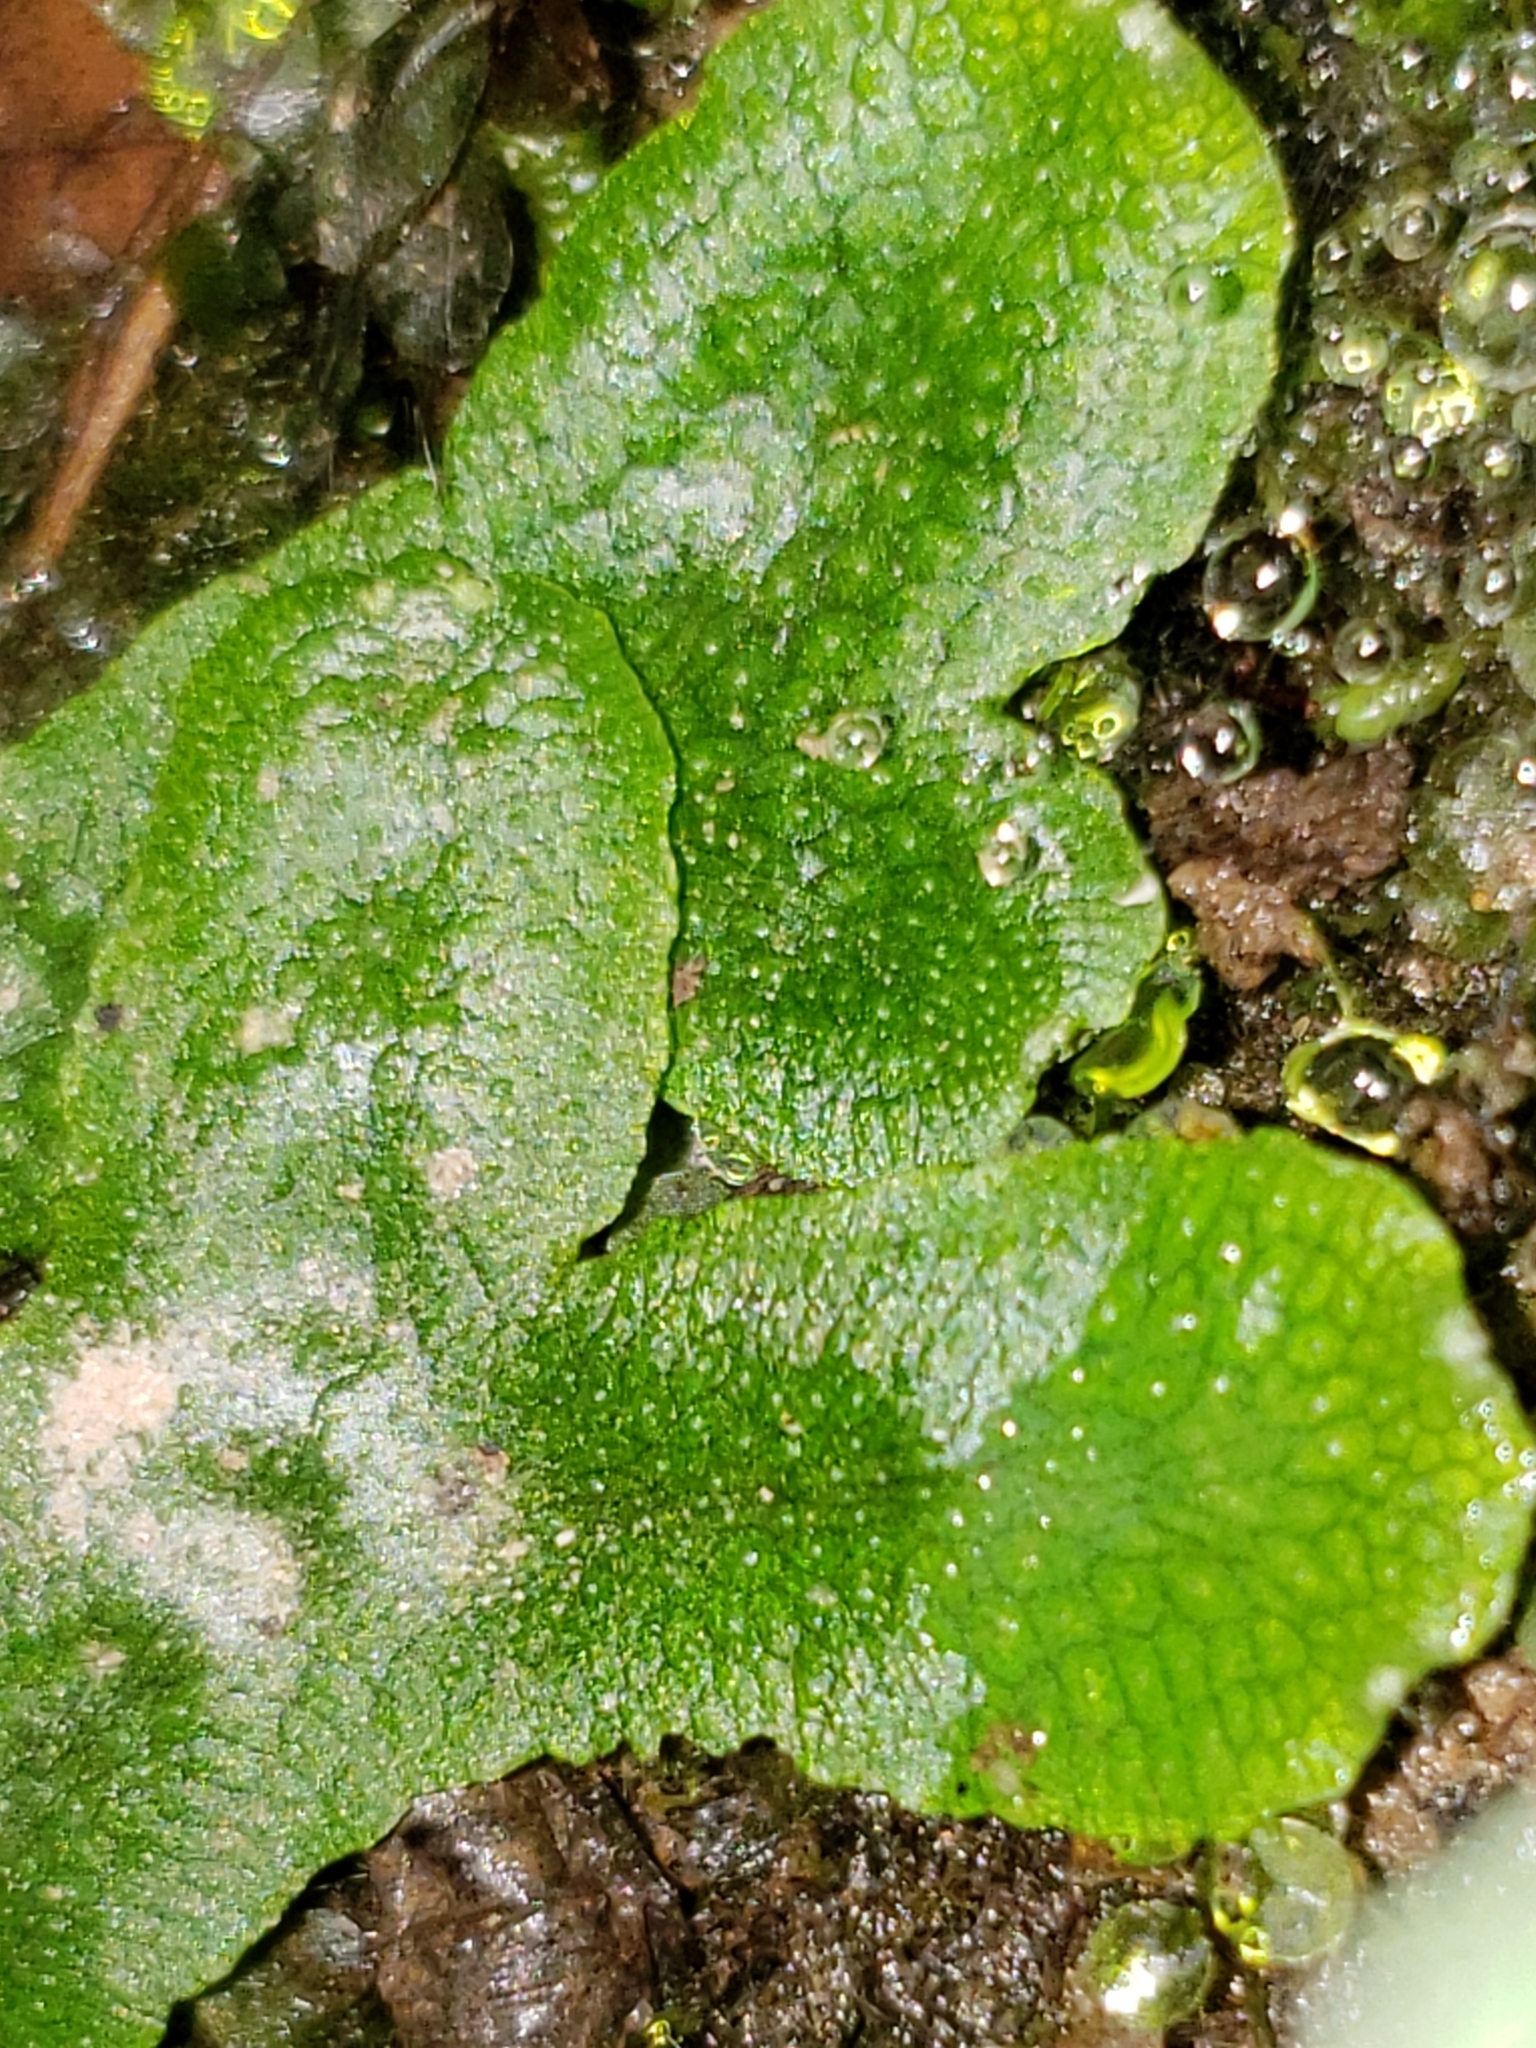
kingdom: Plantae
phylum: Marchantiophyta
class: Marchantiopsida
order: Marchantiales
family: Conocephalaceae
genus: Conocephalum
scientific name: Conocephalum salebrosum
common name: Cat-tongue liverwort
